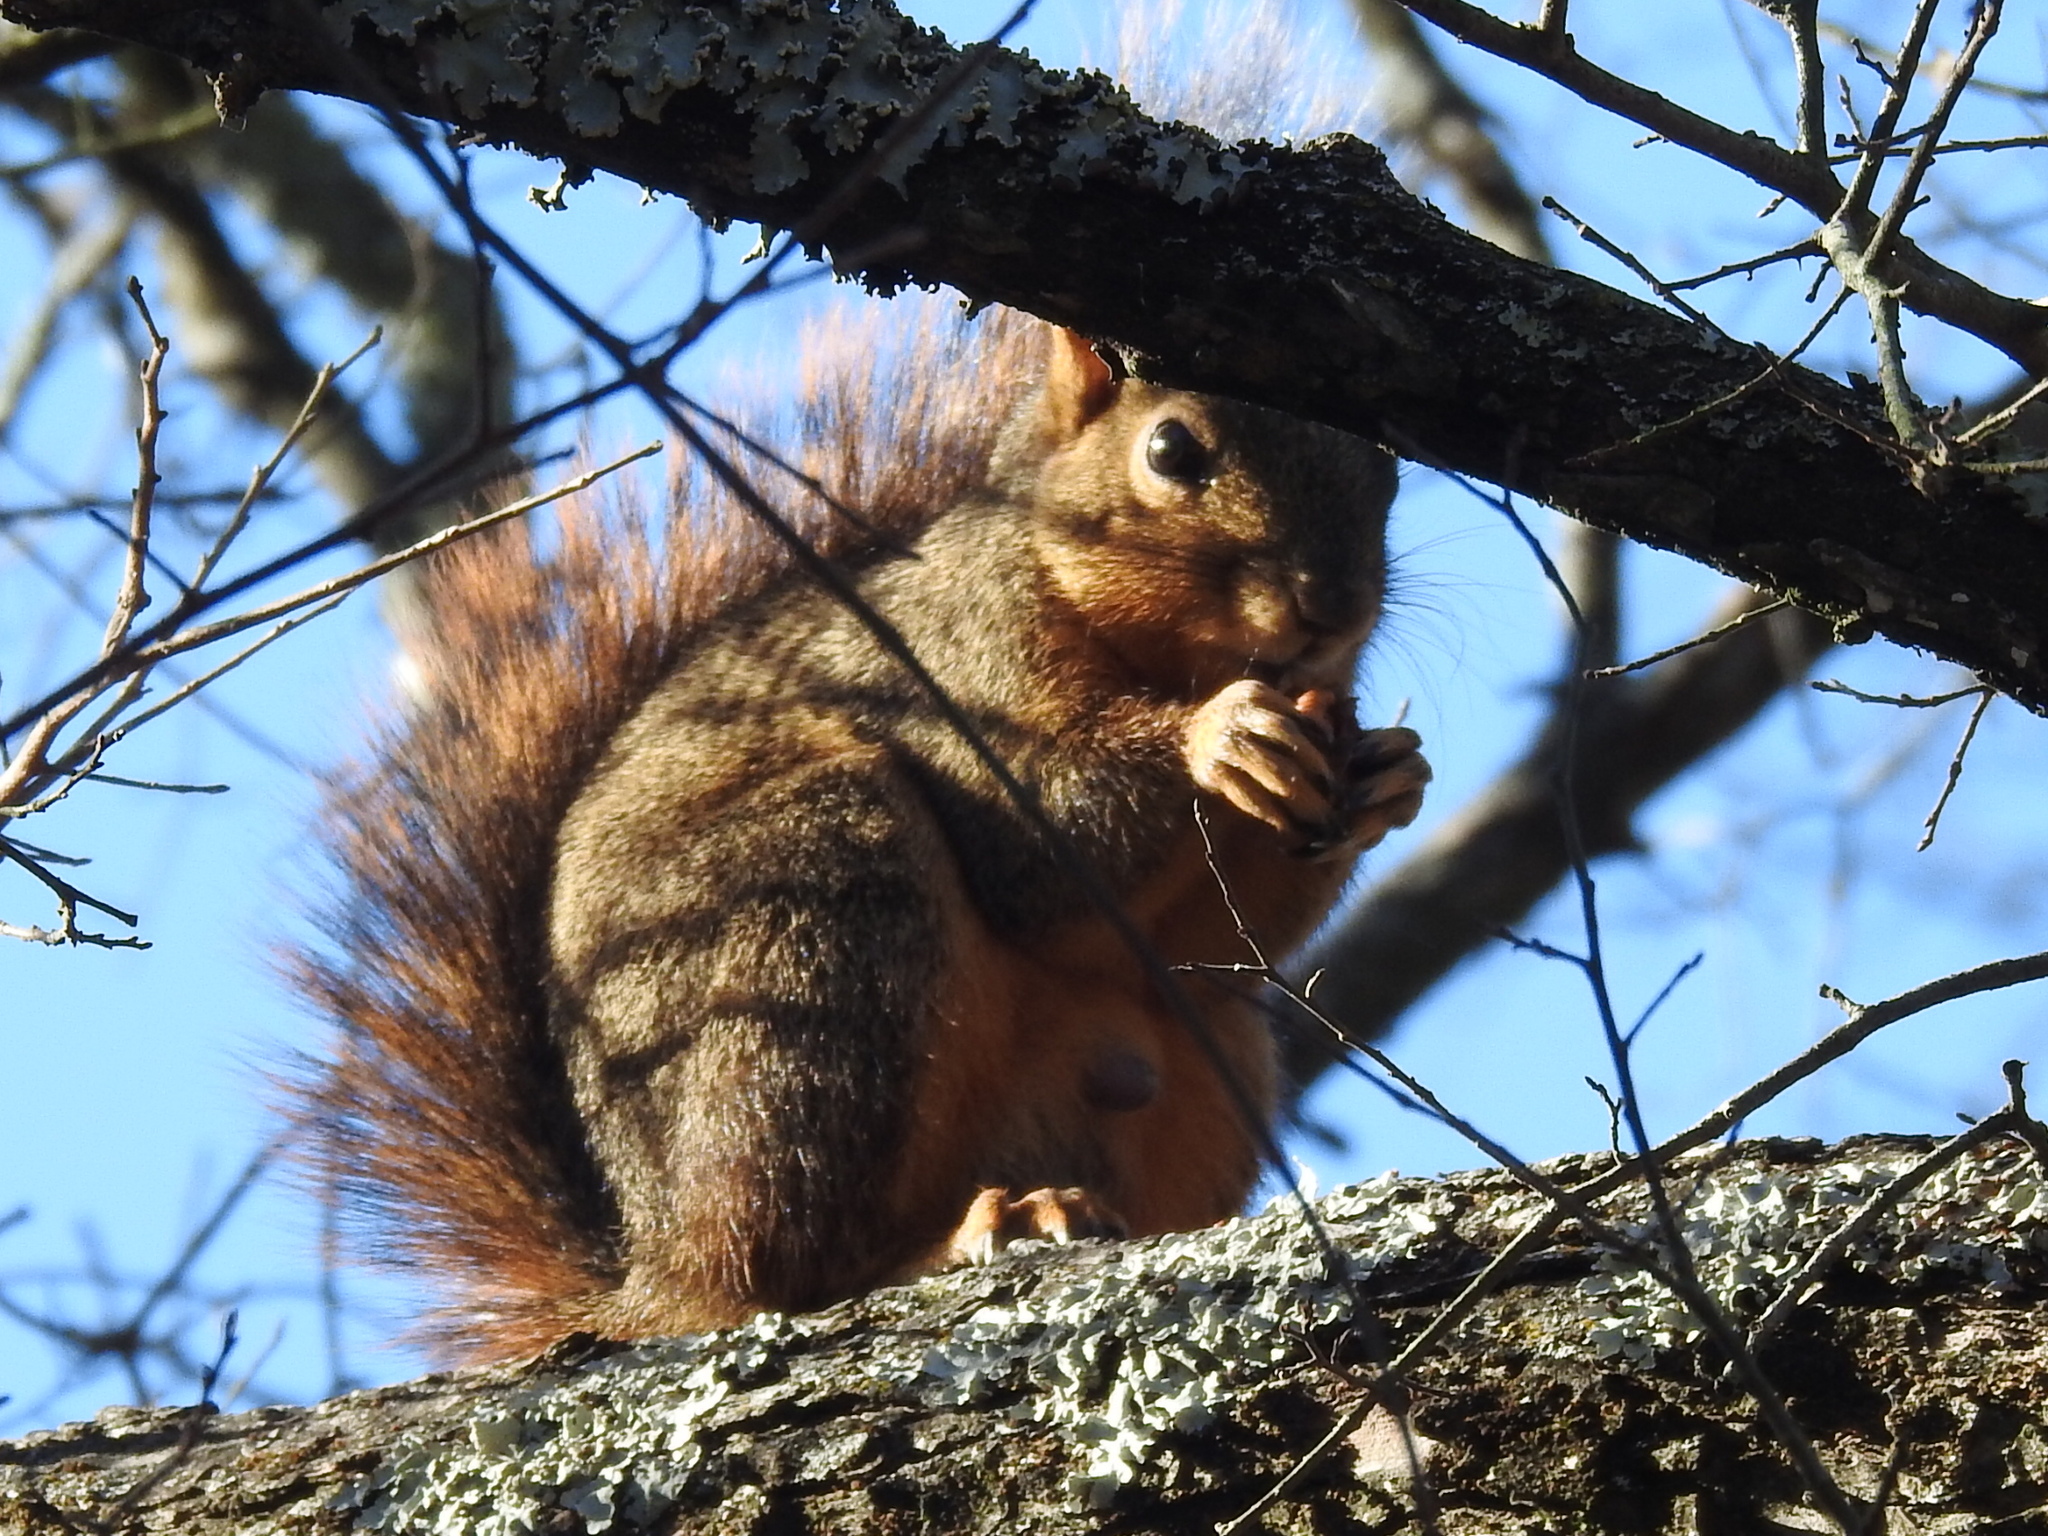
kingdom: Animalia
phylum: Chordata
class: Mammalia
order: Rodentia
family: Sciuridae
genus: Sciurus
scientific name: Sciurus niger
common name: Fox squirrel
